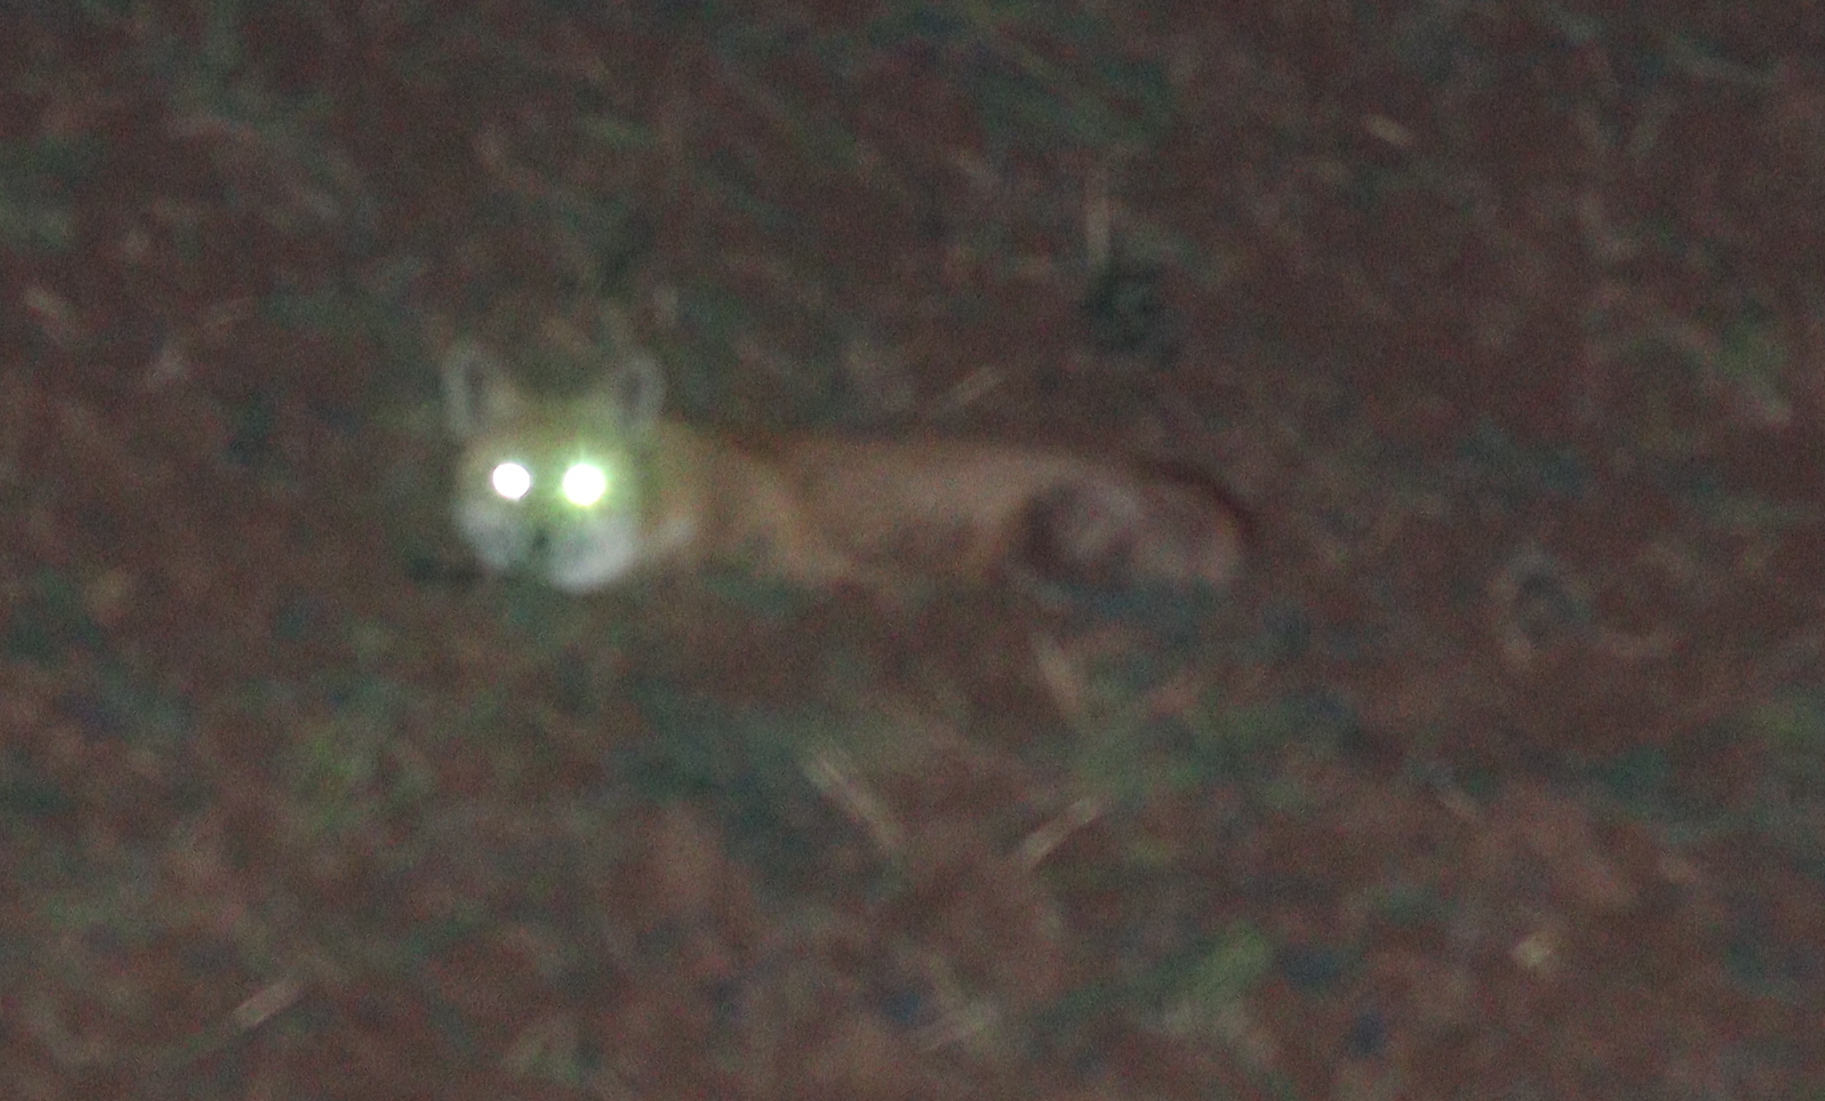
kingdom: Animalia
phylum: Chordata
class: Mammalia
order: Carnivora
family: Canidae
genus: Vulpes
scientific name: Vulpes vulpes
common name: Red fox
